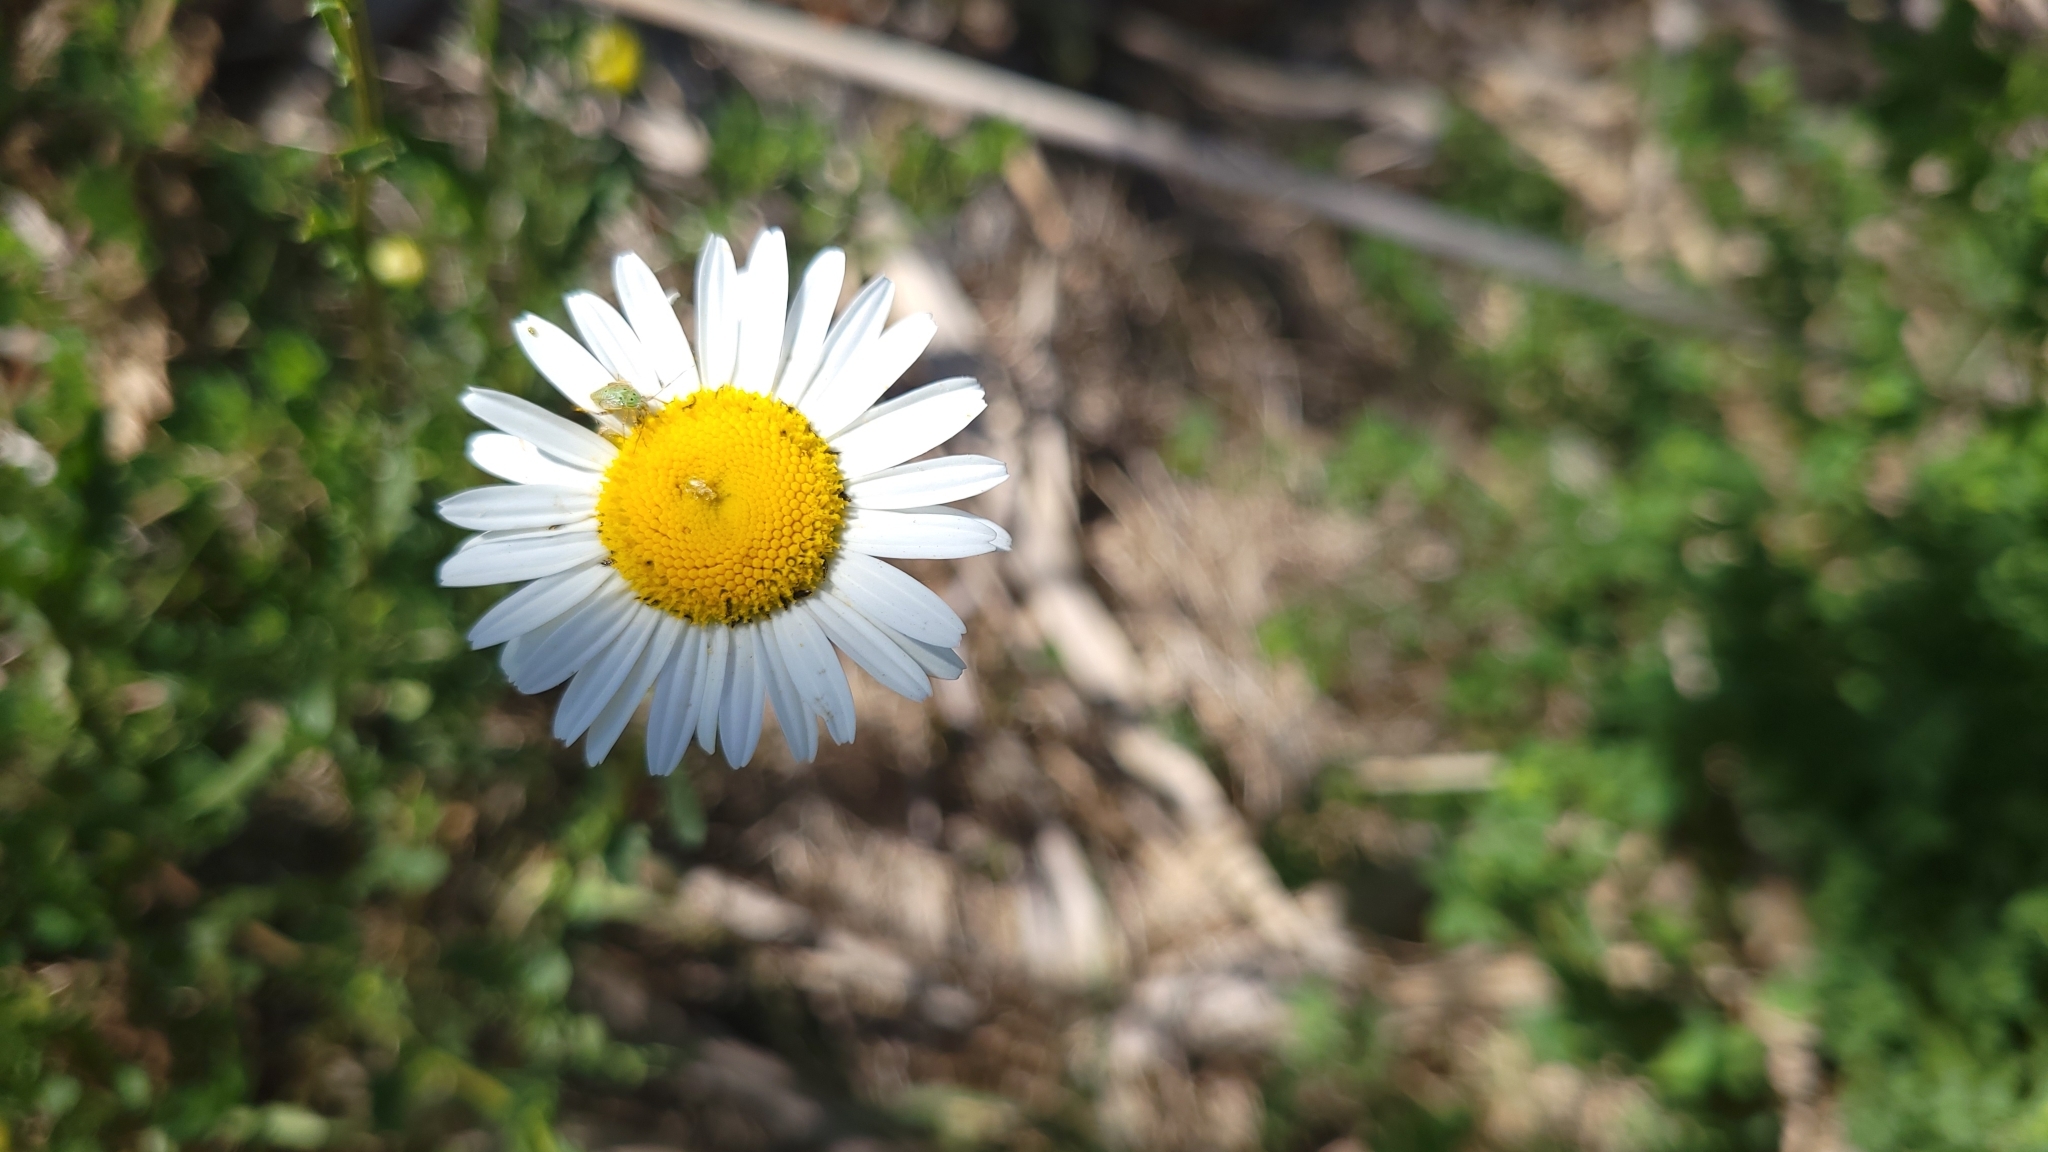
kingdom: Plantae
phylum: Tracheophyta
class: Magnoliopsida
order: Asterales
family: Asteraceae
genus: Leucanthemum
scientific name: Leucanthemum vulgare
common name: Oxeye daisy
